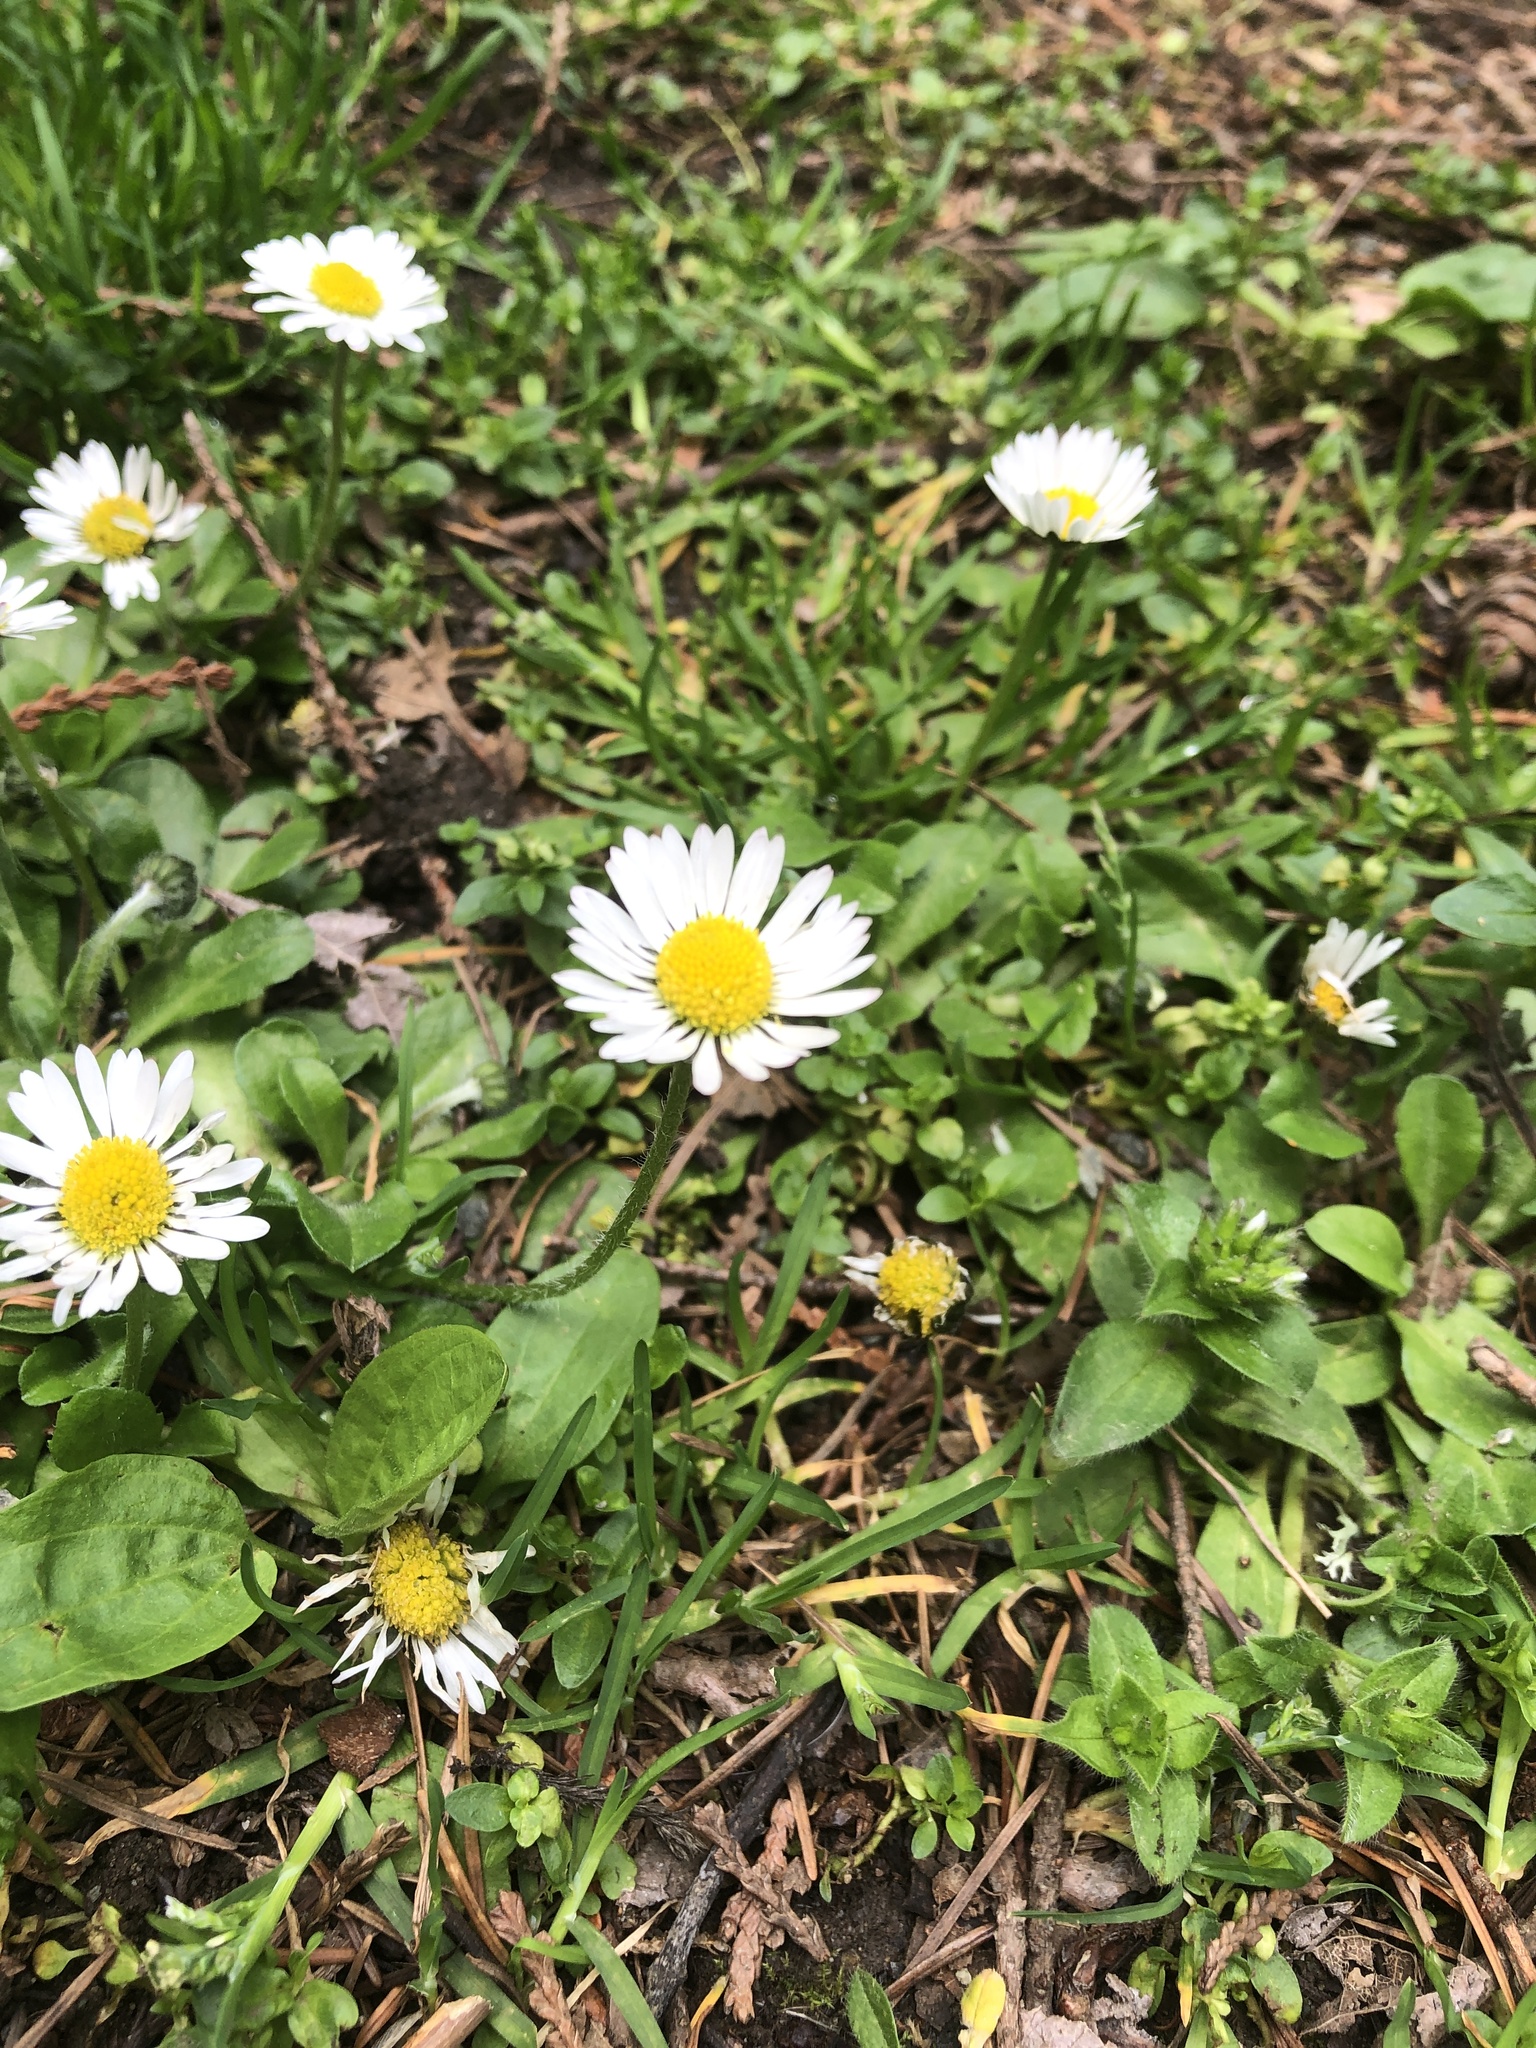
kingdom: Plantae
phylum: Tracheophyta
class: Magnoliopsida
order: Asterales
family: Asteraceae
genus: Bellis
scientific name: Bellis perennis
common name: Lawndaisy
